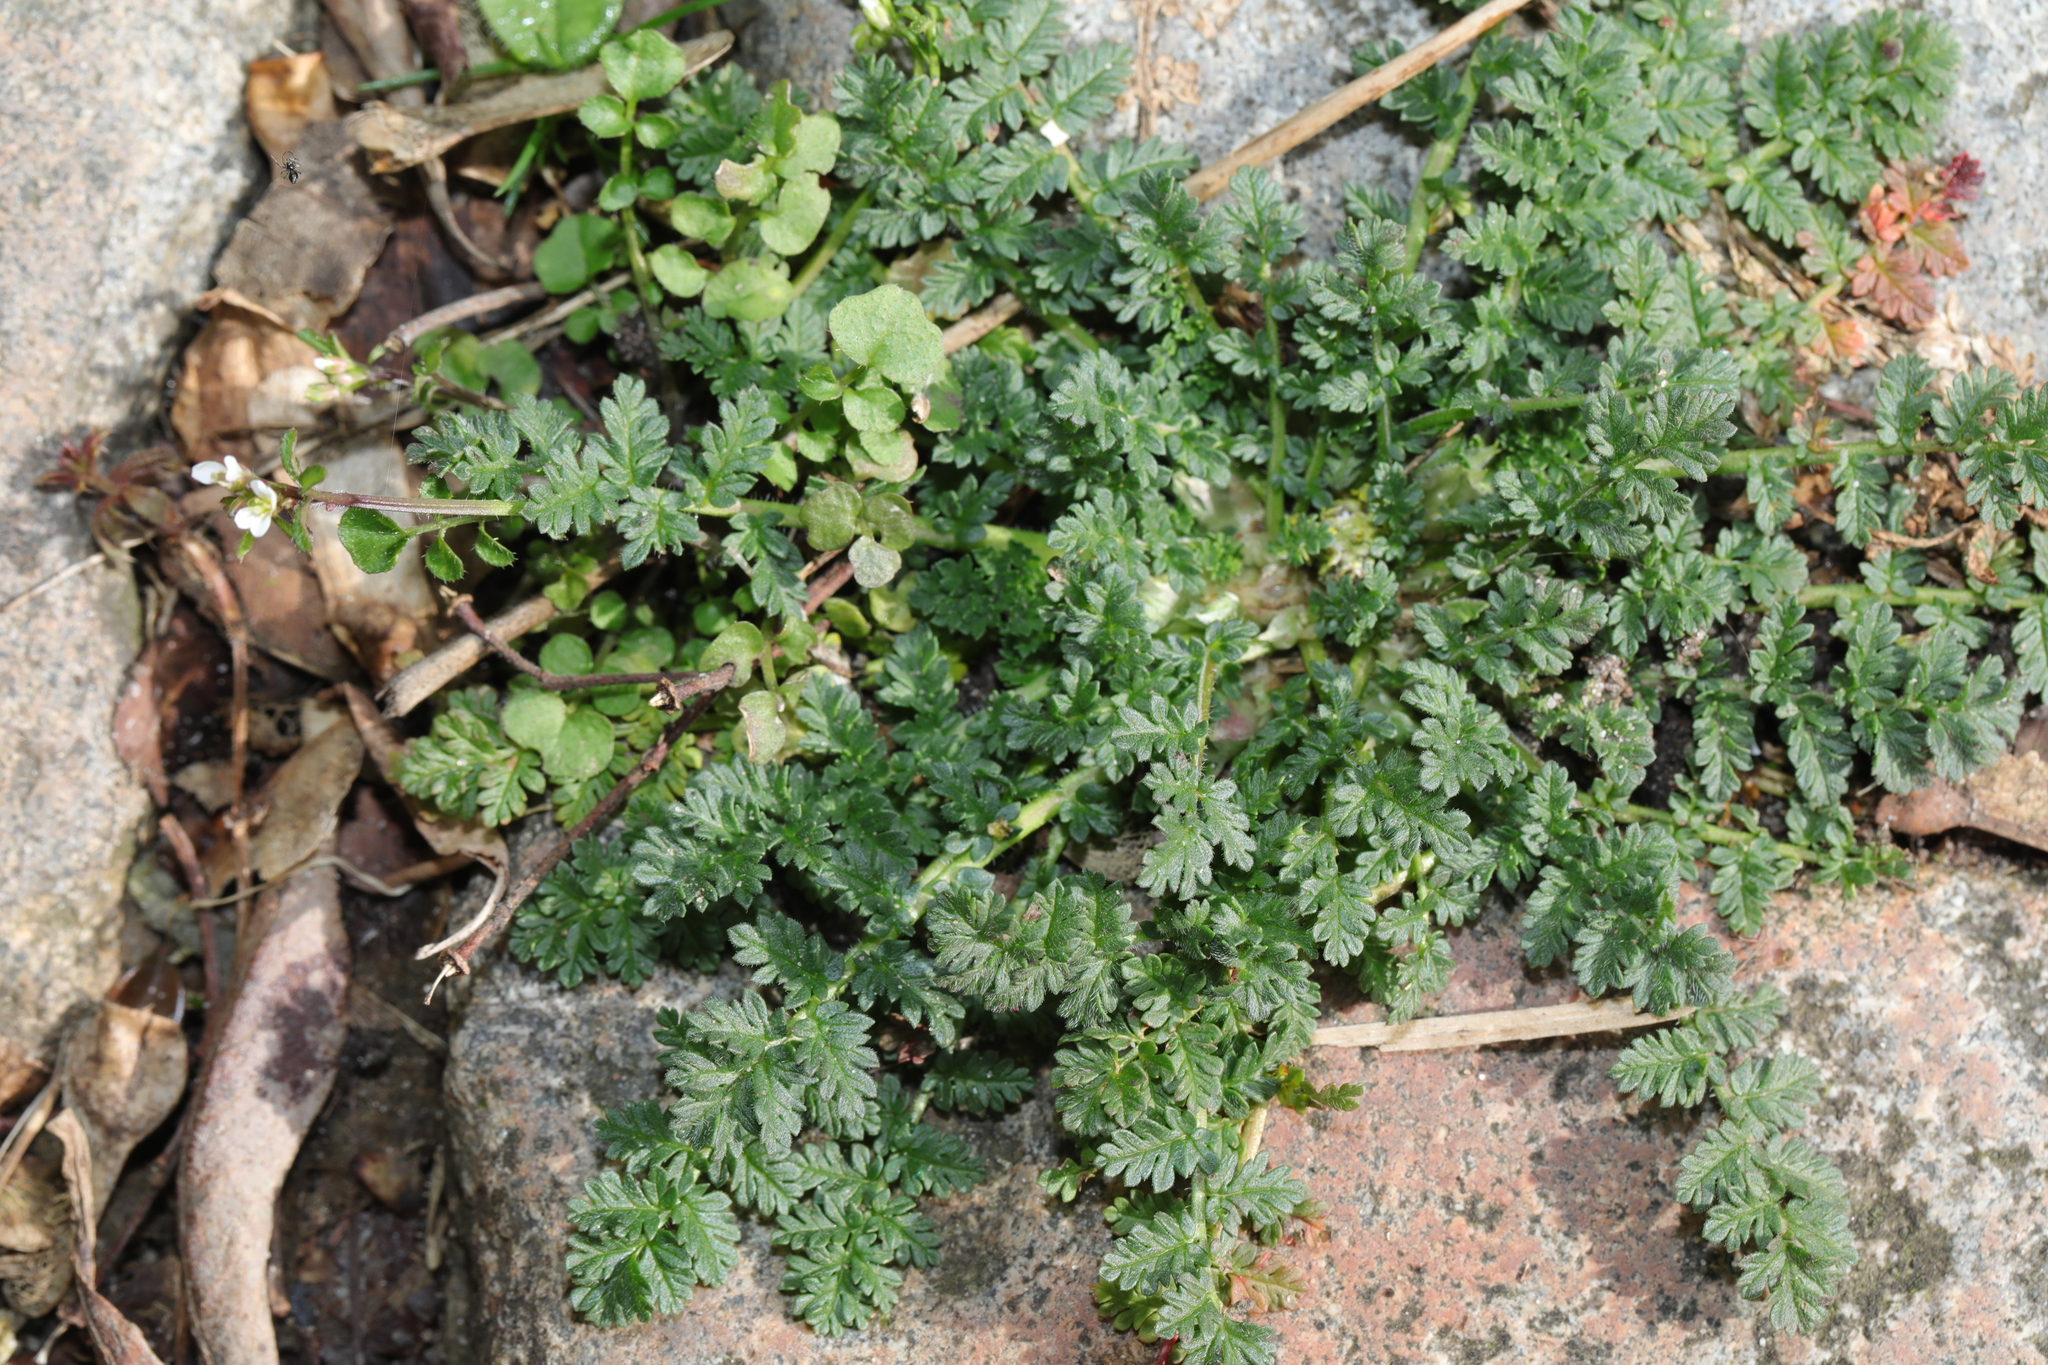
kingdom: Plantae
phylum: Tracheophyta
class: Magnoliopsida
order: Geraniales
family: Geraniaceae
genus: Erodium
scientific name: Erodium cicutarium
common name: Common stork's-bill
